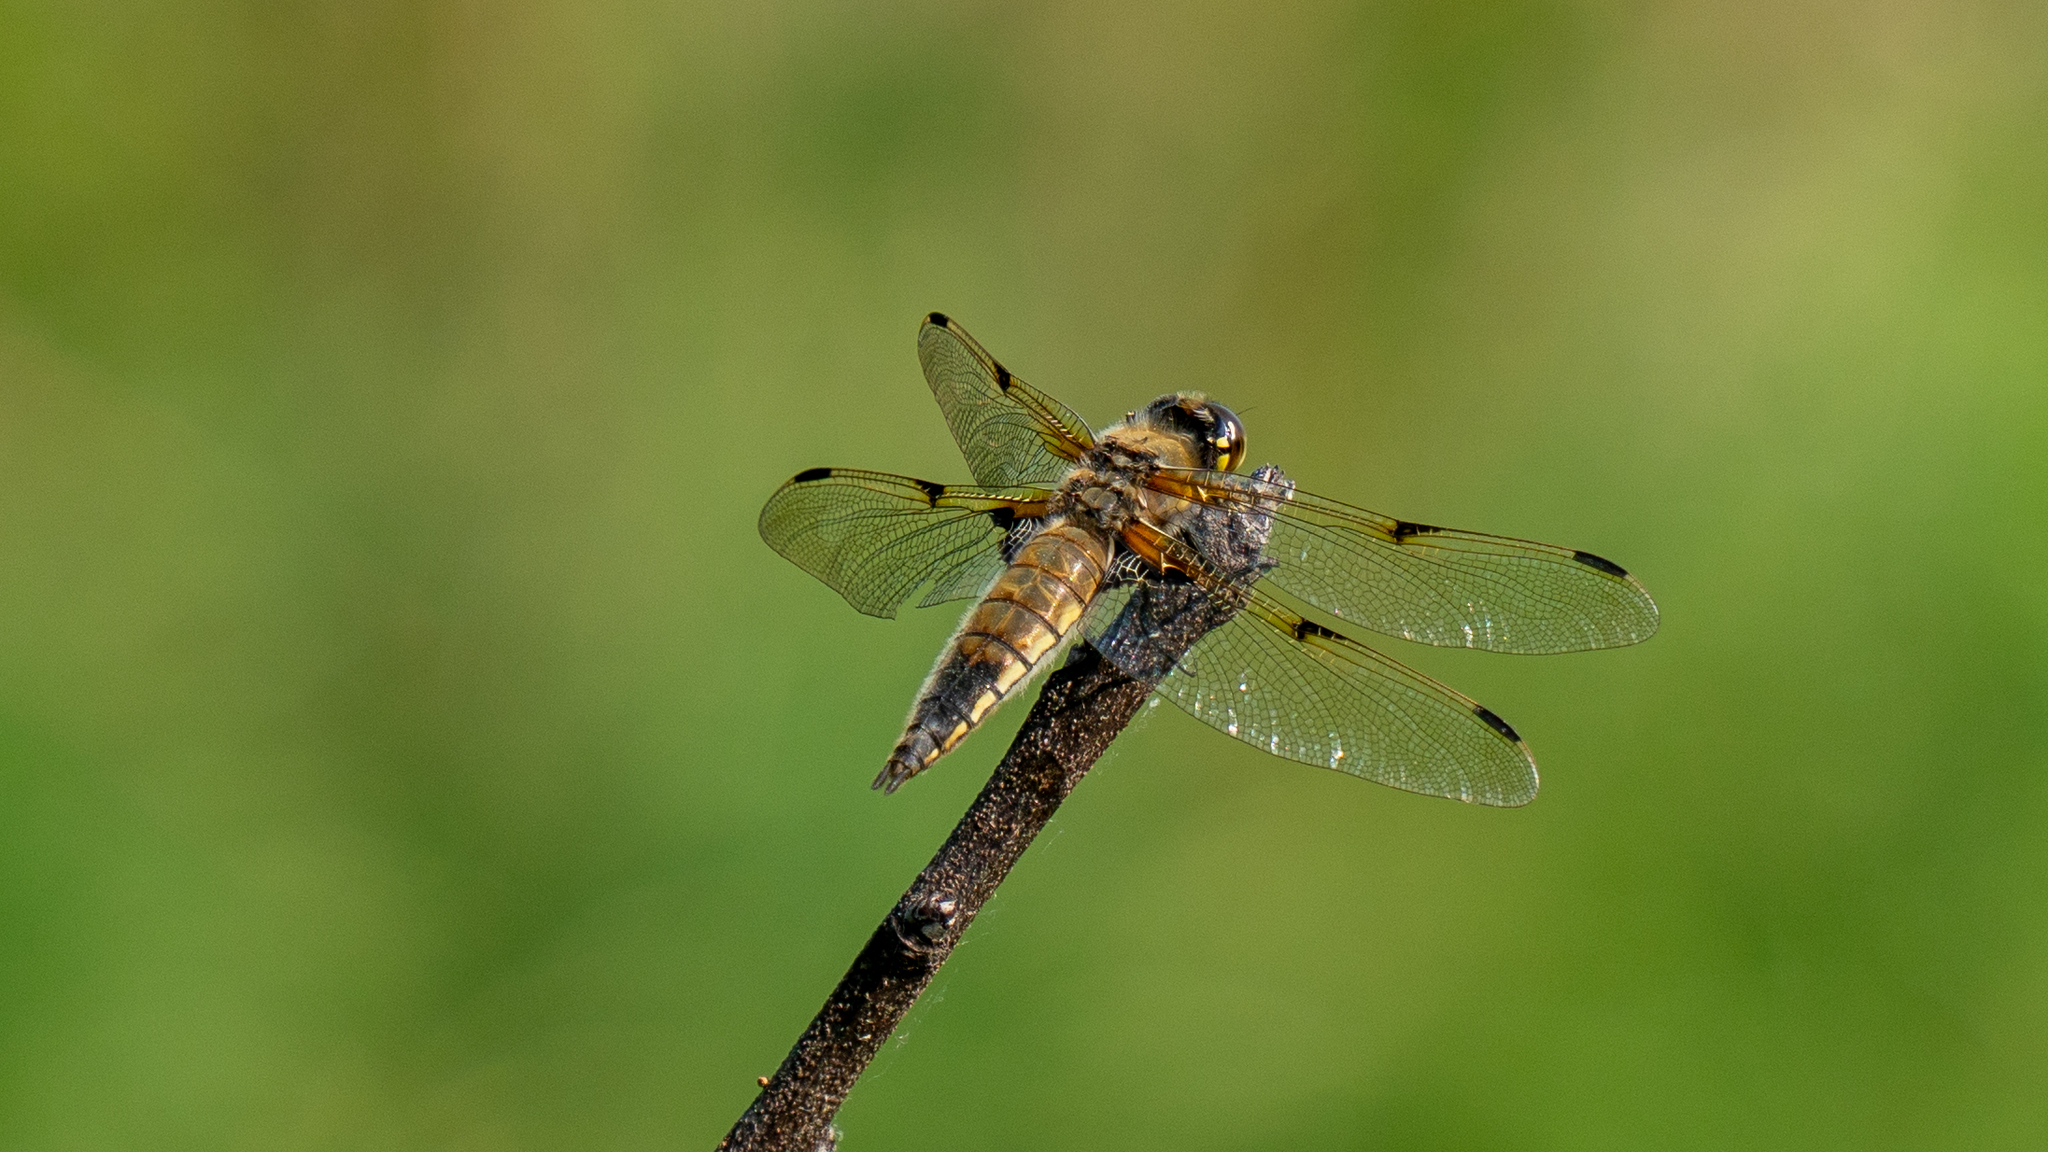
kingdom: Animalia
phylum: Arthropoda
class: Insecta
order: Odonata
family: Libellulidae
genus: Libellula
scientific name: Libellula quadrimaculata
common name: Four-spotted chaser
